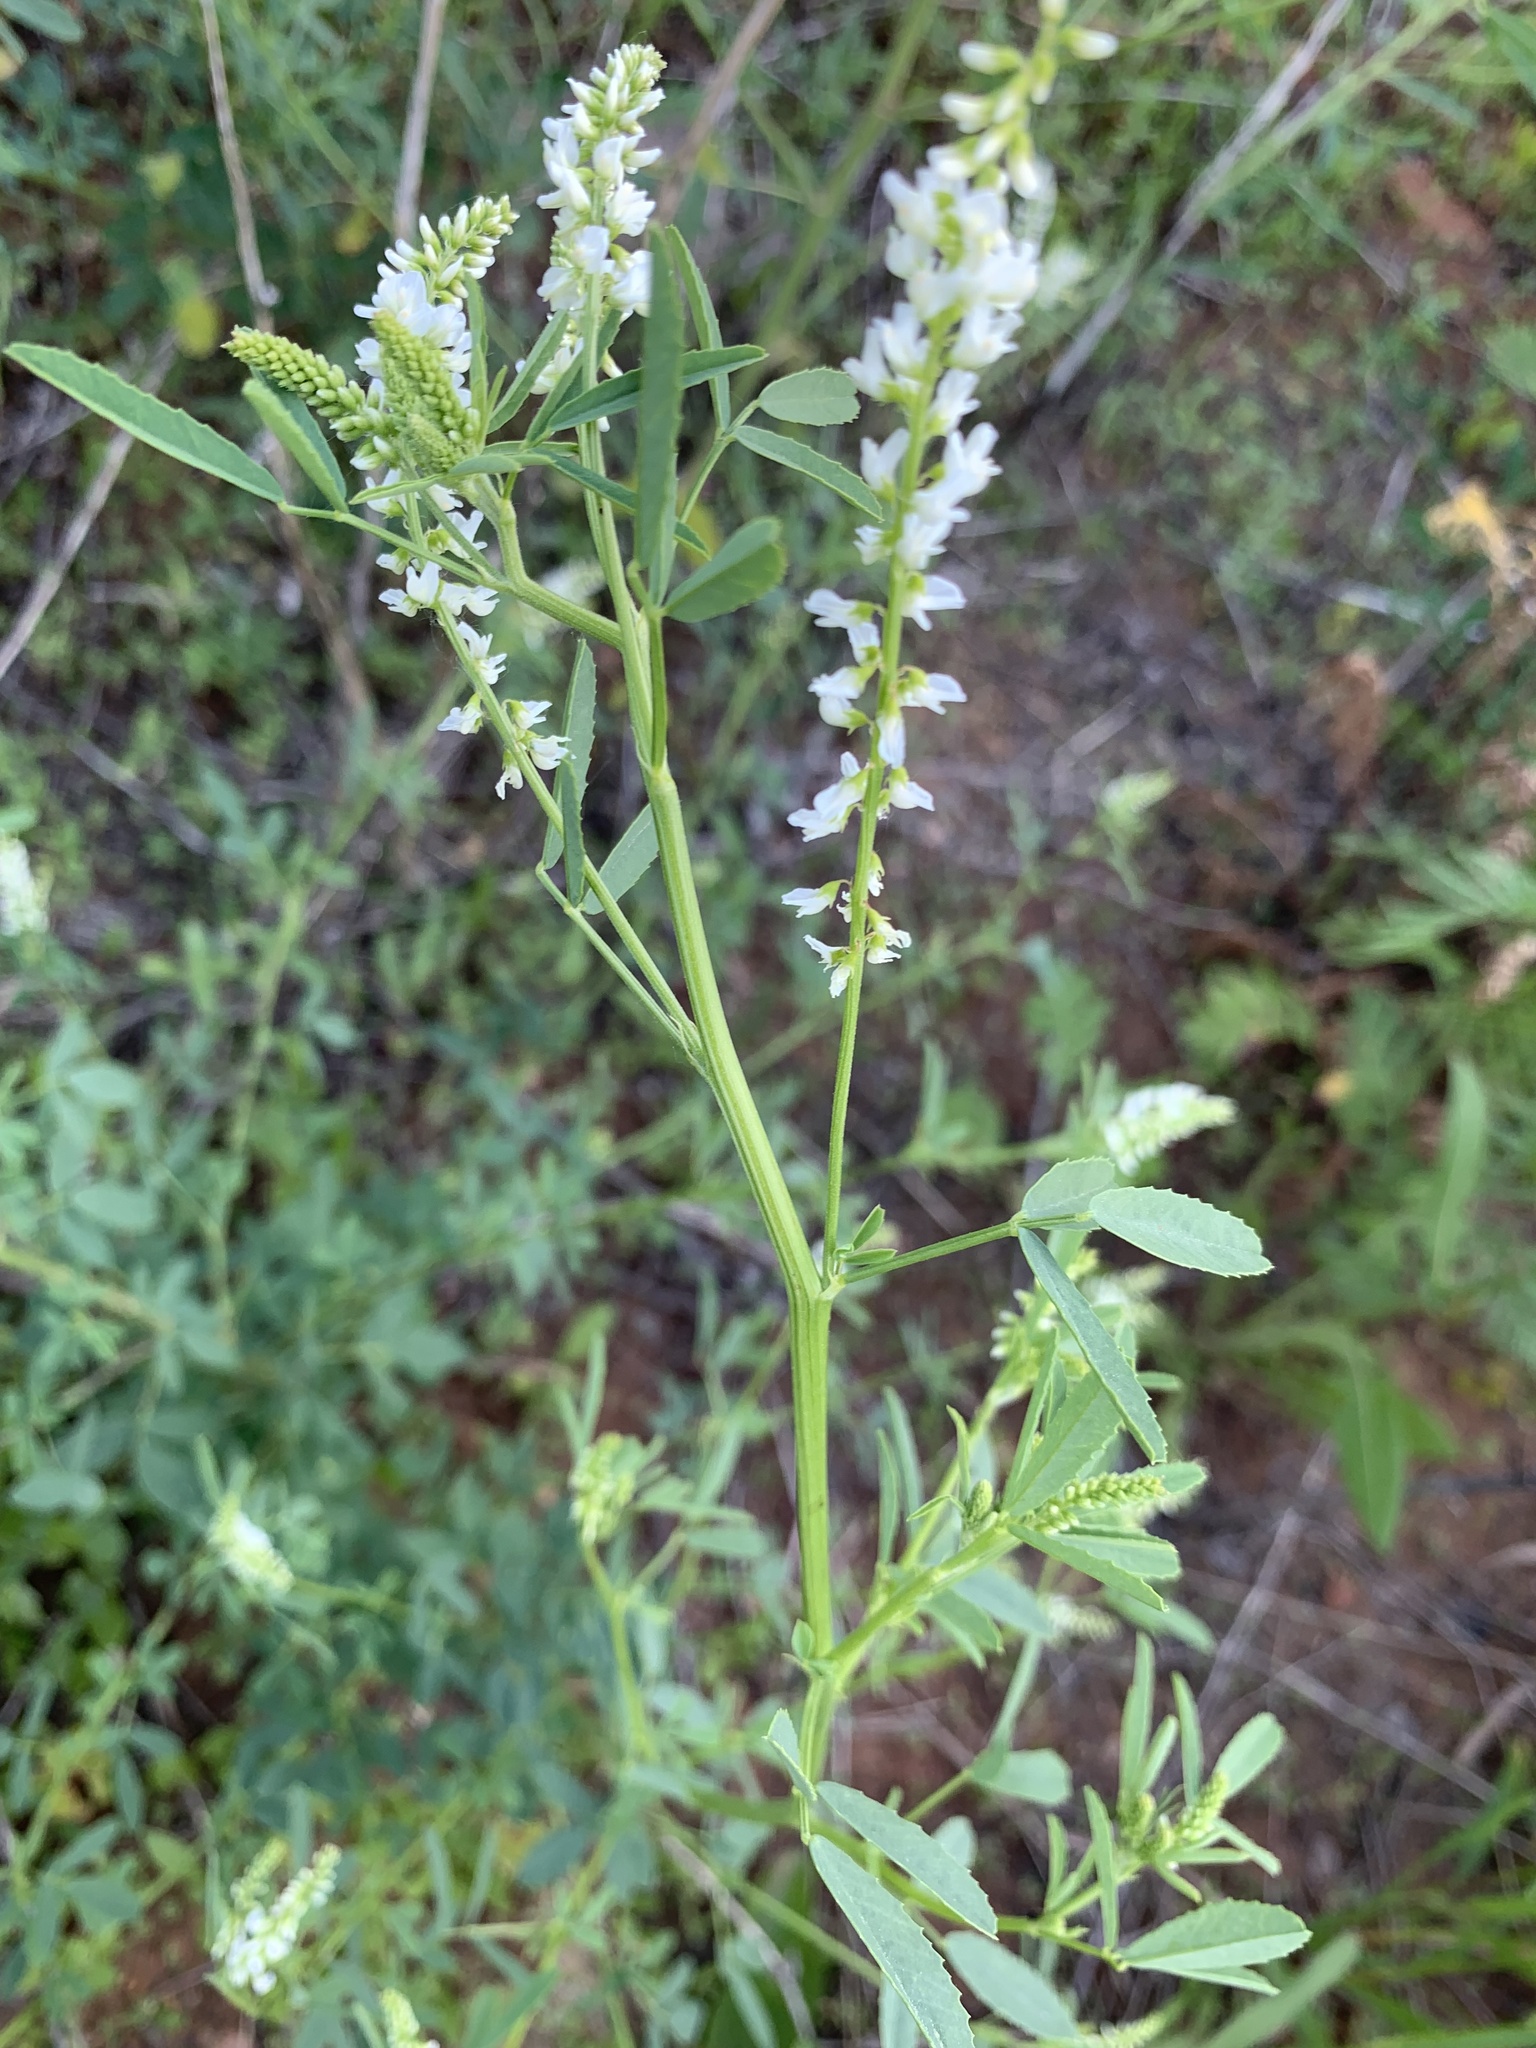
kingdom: Plantae
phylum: Tracheophyta
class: Magnoliopsida
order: Fabales
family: Fabaceae
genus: Melilotus
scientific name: Melilotus albus
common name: White melilot
